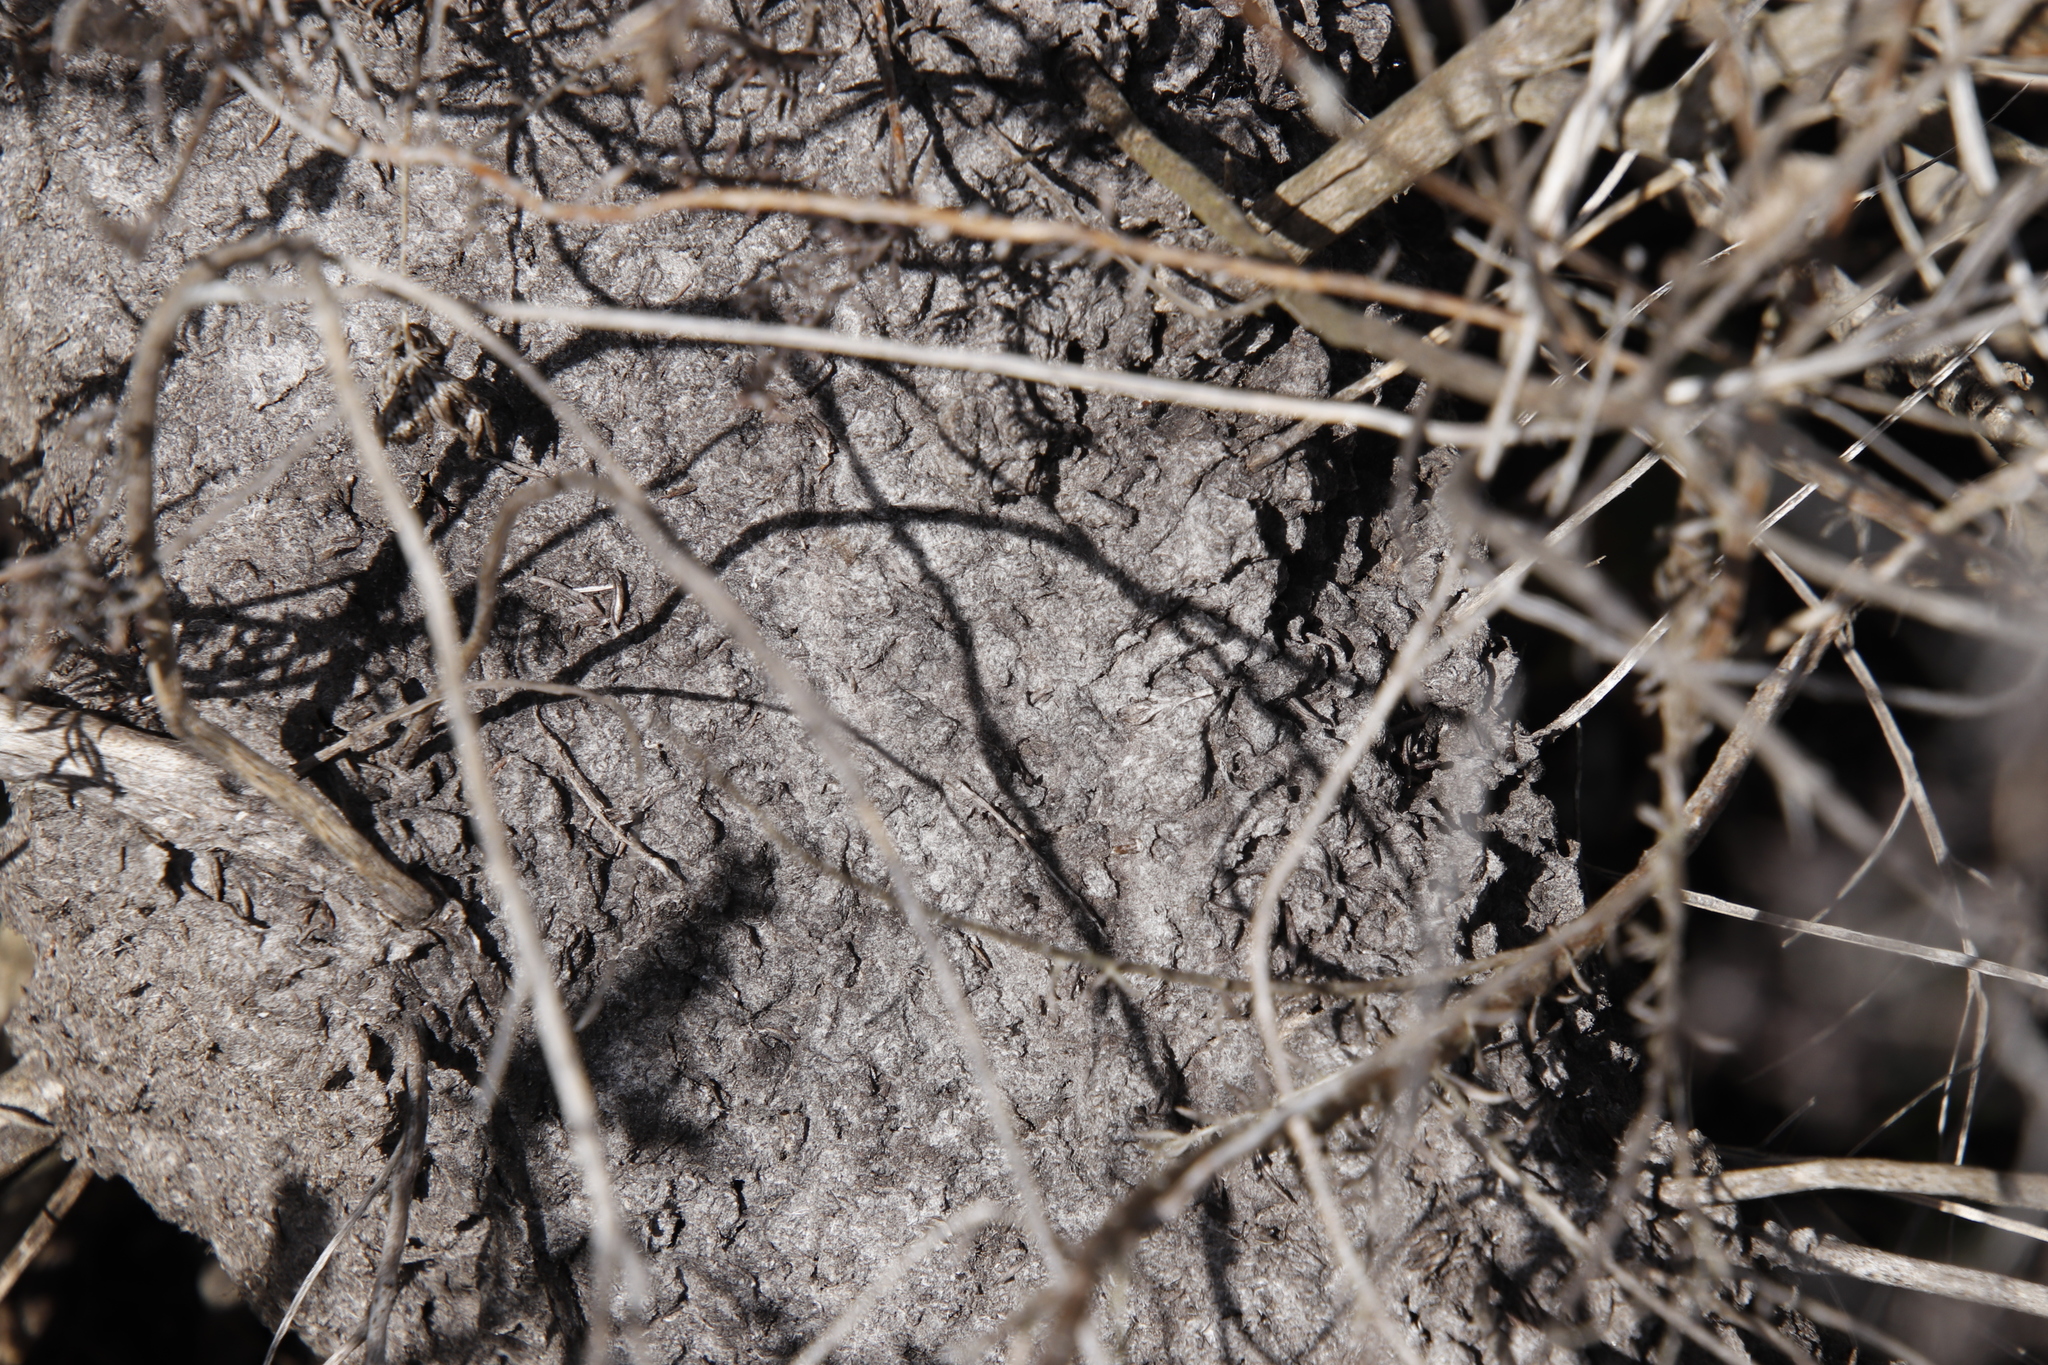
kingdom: Animalia
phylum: Arthropoda
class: Insecta
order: Hymenoptera
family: Formicidae
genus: Crematogaster
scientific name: Crematogaster peringueyi
